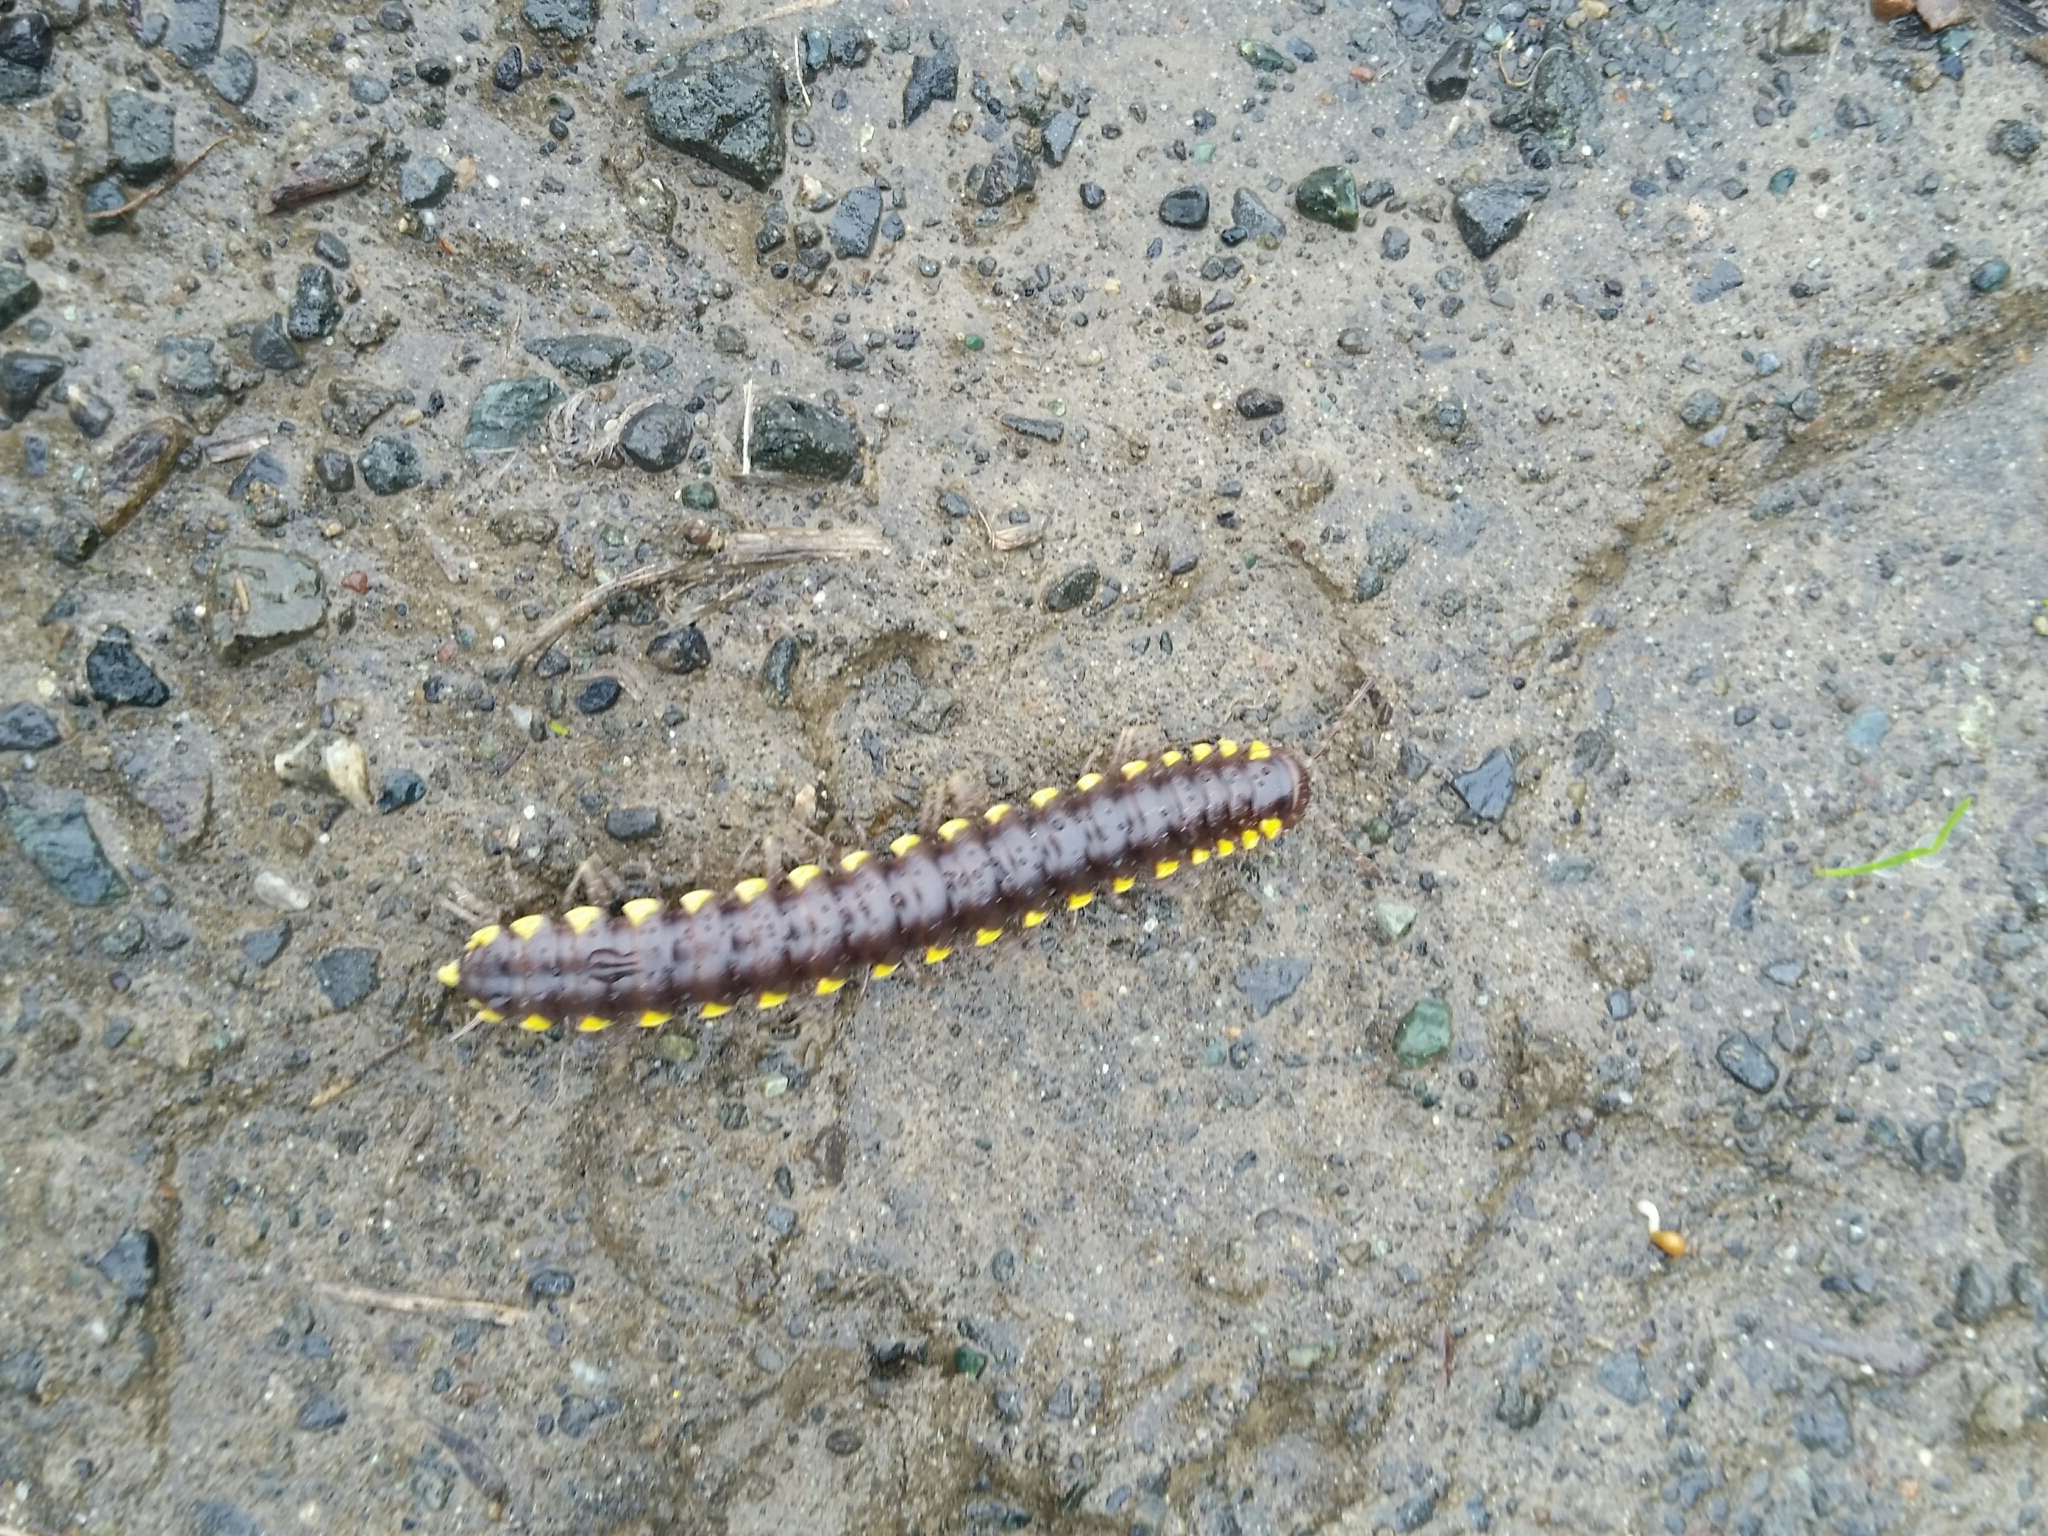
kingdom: Animalia
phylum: Arthropoda
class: Diplopoda
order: Polydesmida
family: Xystodesmidae
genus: Harpaphe
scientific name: Harpaphe haydeniana
